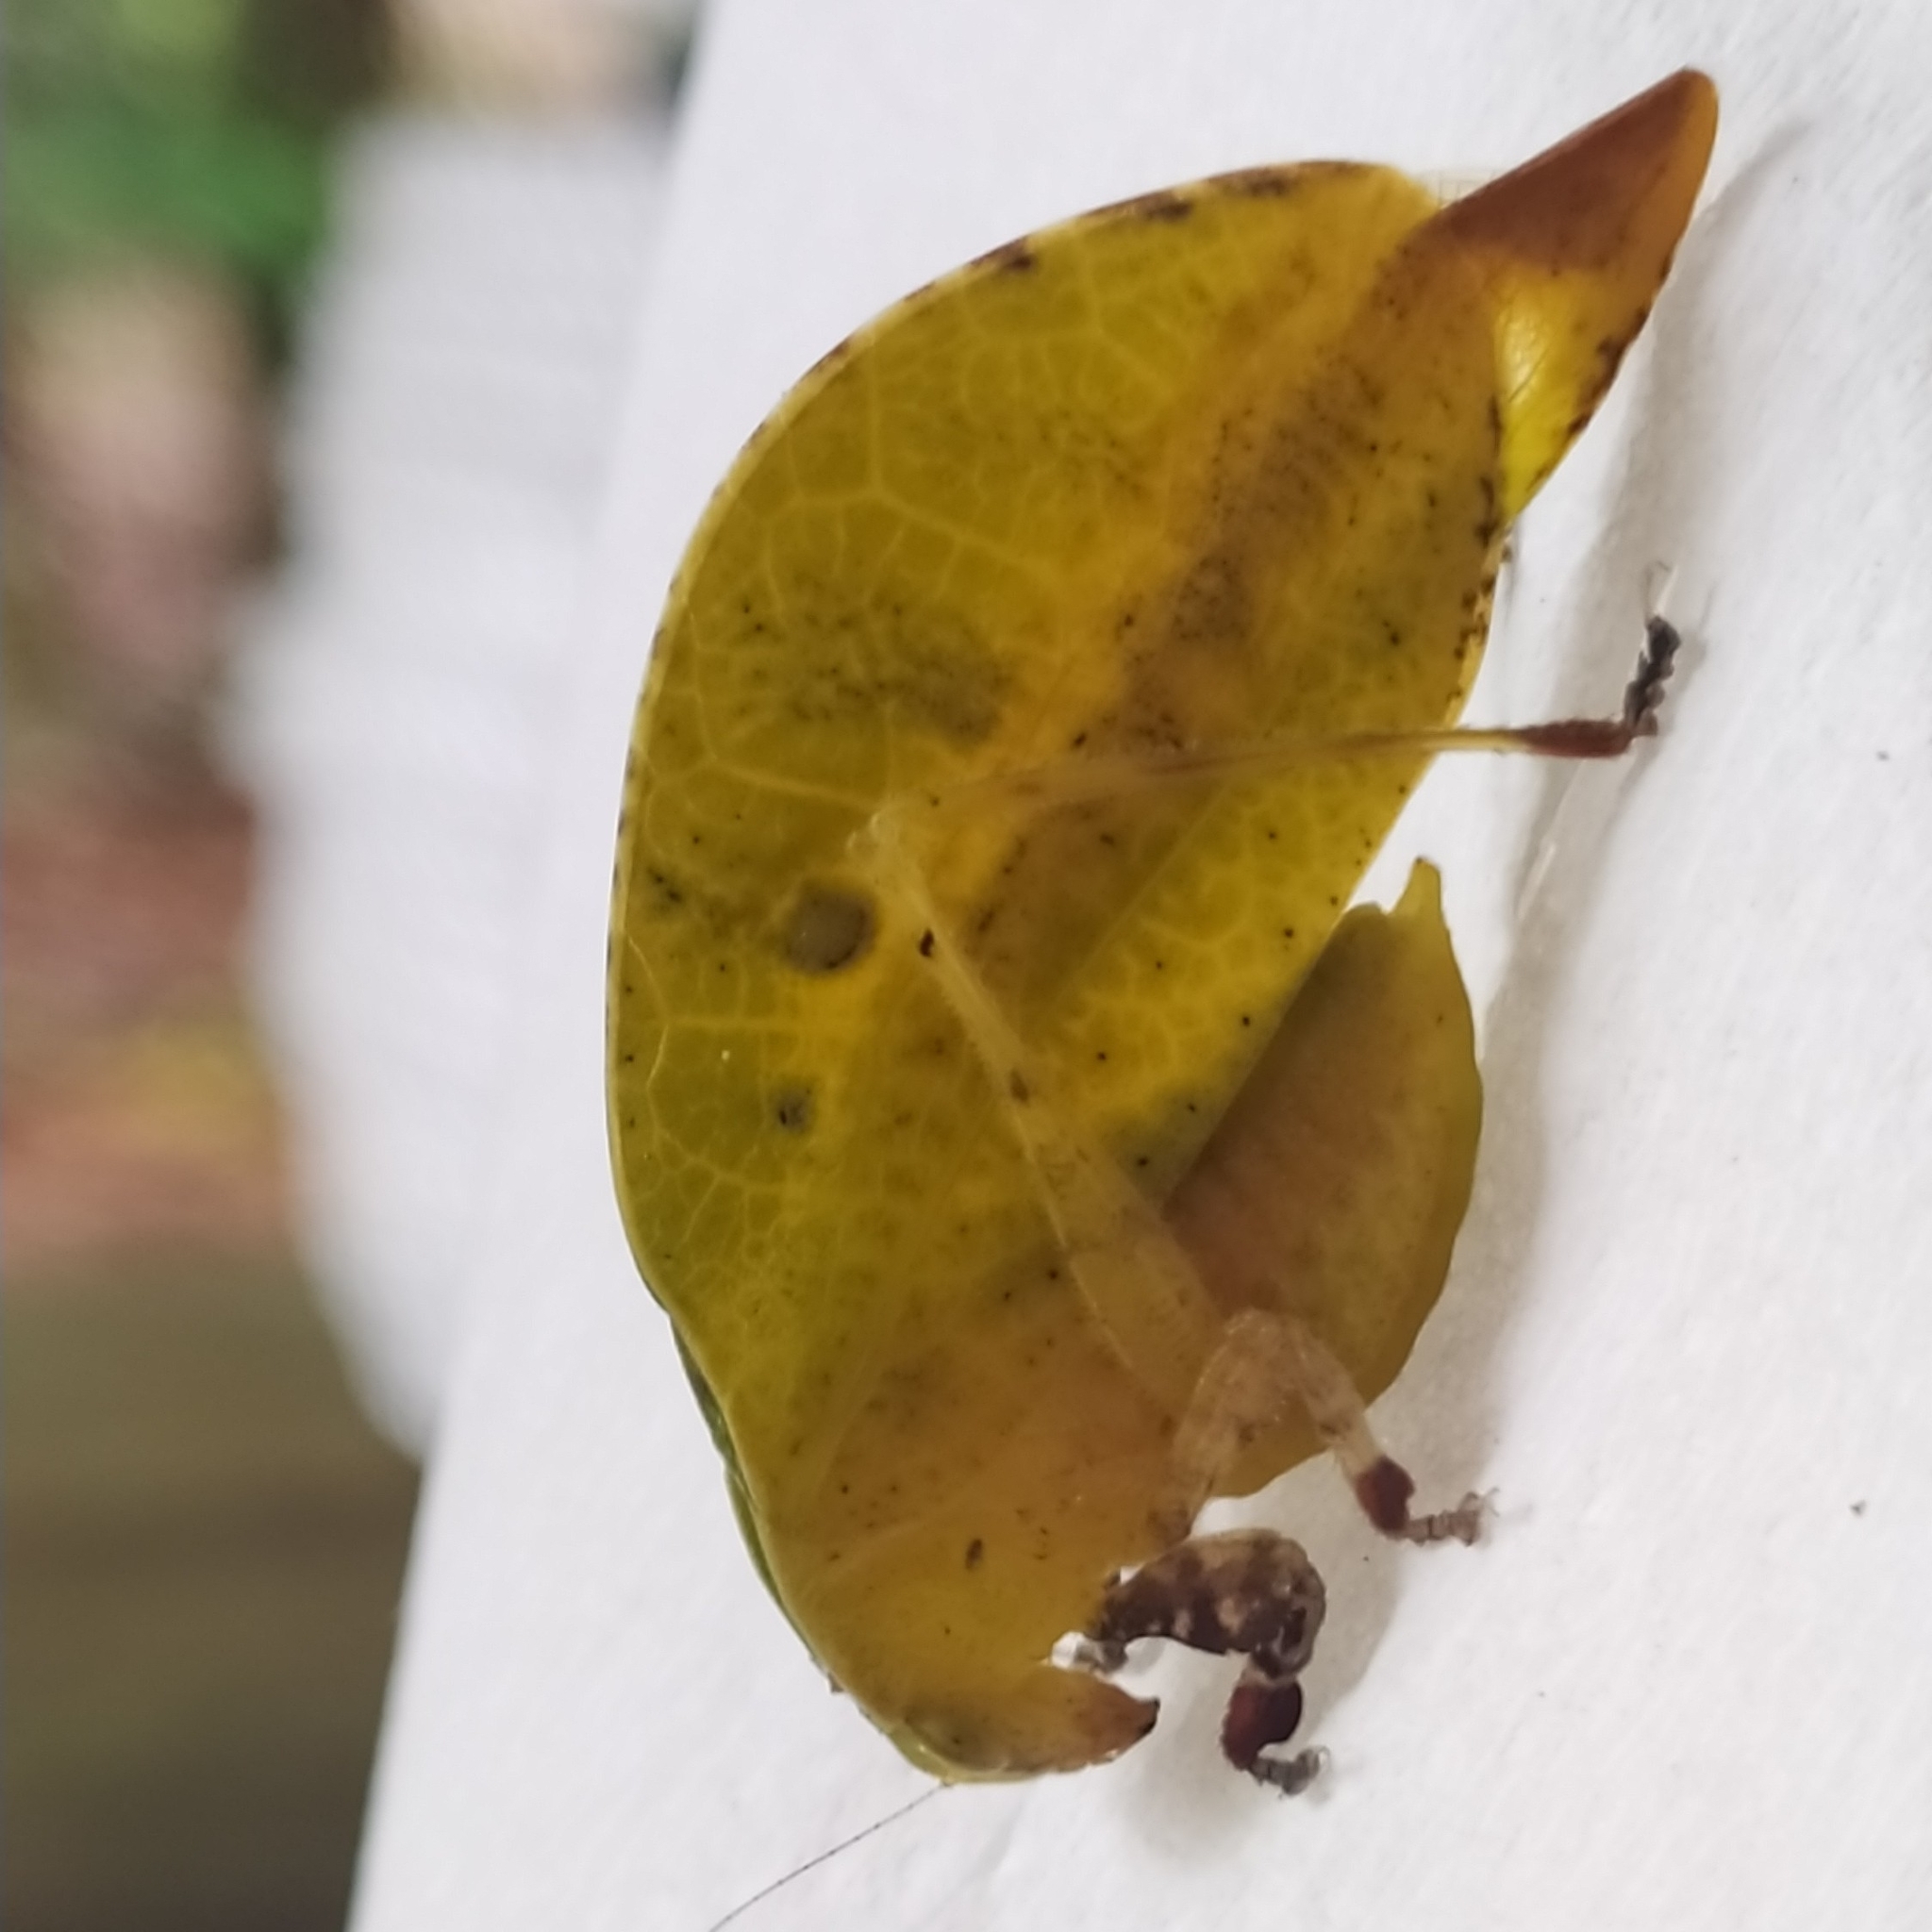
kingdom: Animalia
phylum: Arthropoda
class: Insecta
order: Orthoptera
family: Tettigoniidae
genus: Agaurella
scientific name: Agaurella mirabilis
